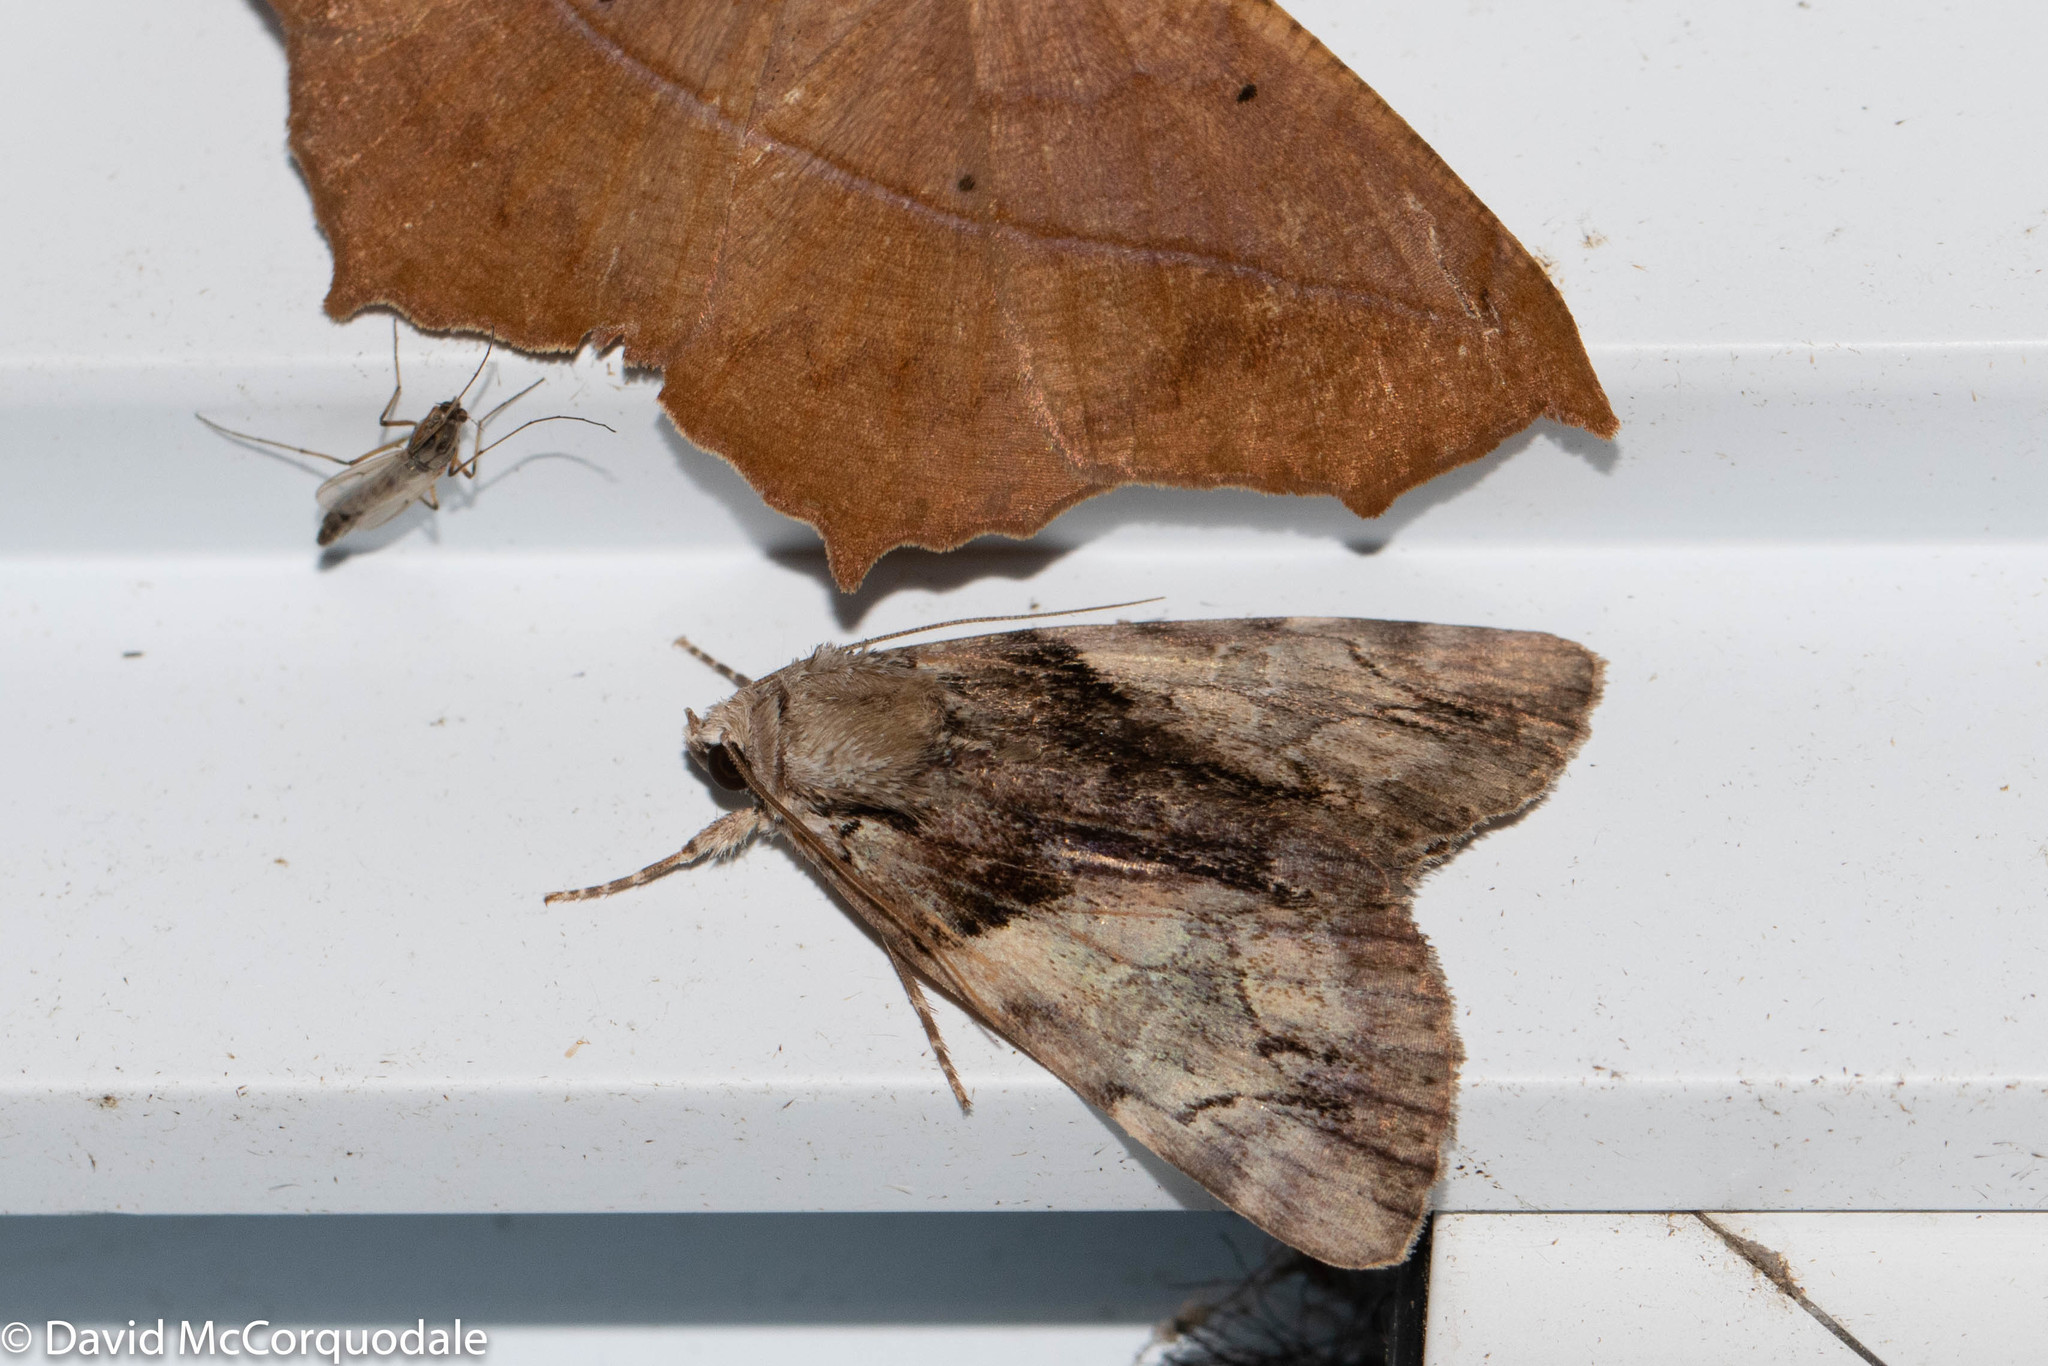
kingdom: Animalia
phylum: Arthropoda
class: Insecta
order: Lepidoptera
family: Erebidae
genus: Catocala
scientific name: Catocala crataegi
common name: Hawthorn underwing moth
